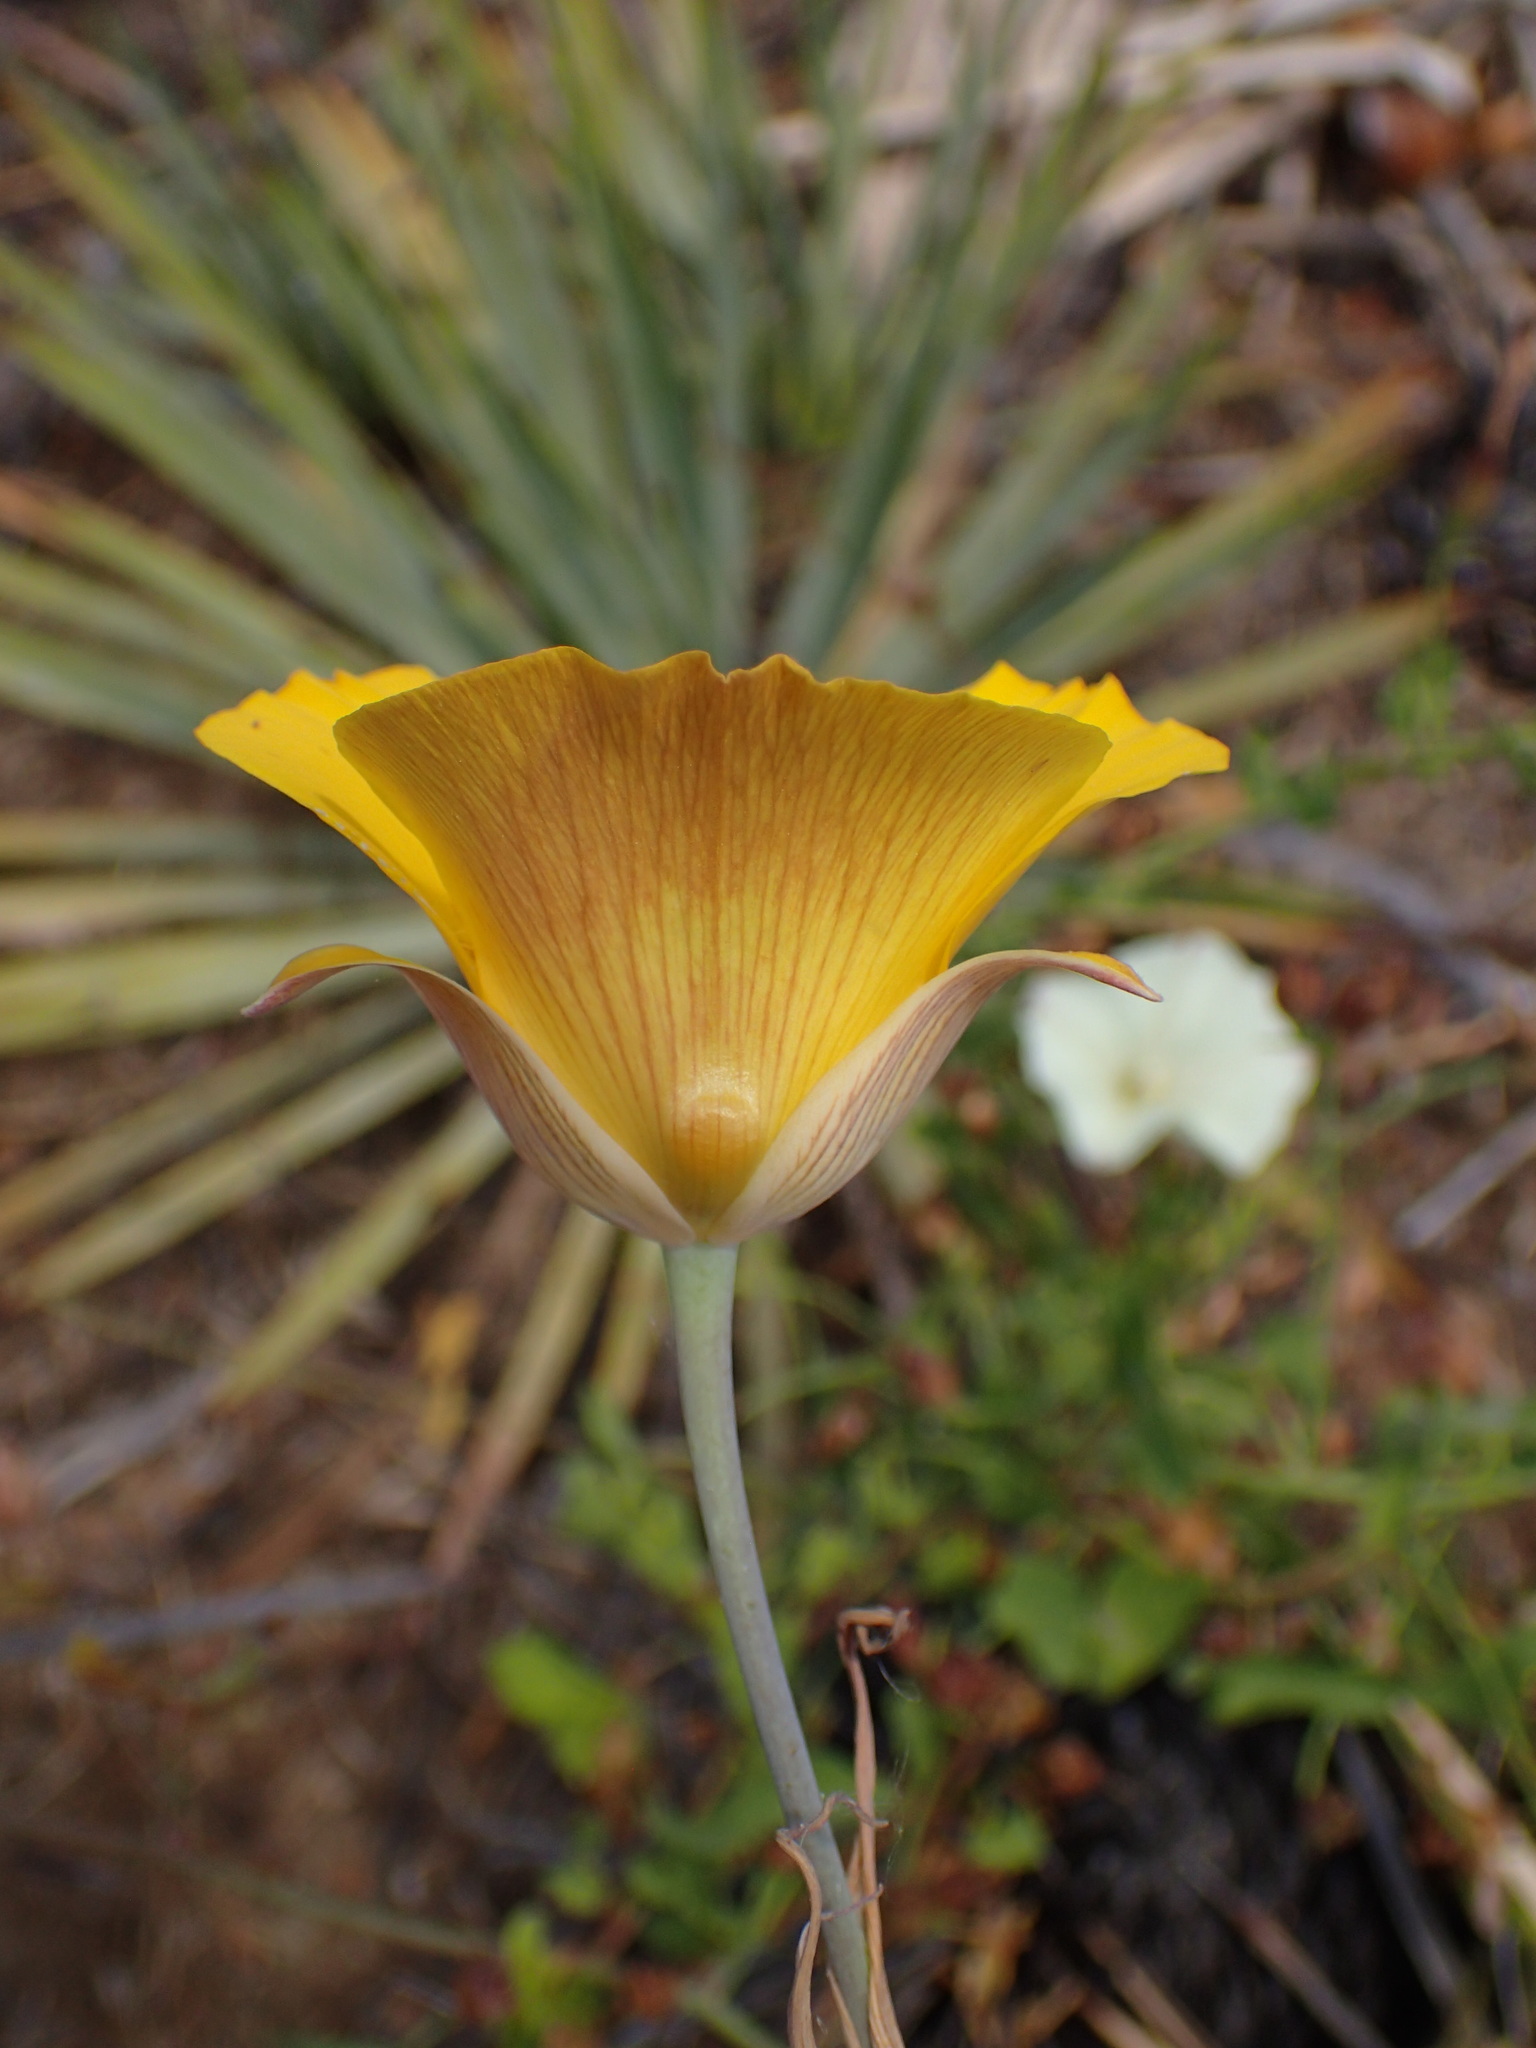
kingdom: Plantae
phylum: Tracheophyta
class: Liliopsida
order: Liliales
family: Liliaceae
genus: Calochortus
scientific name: Calochortus clavatus
